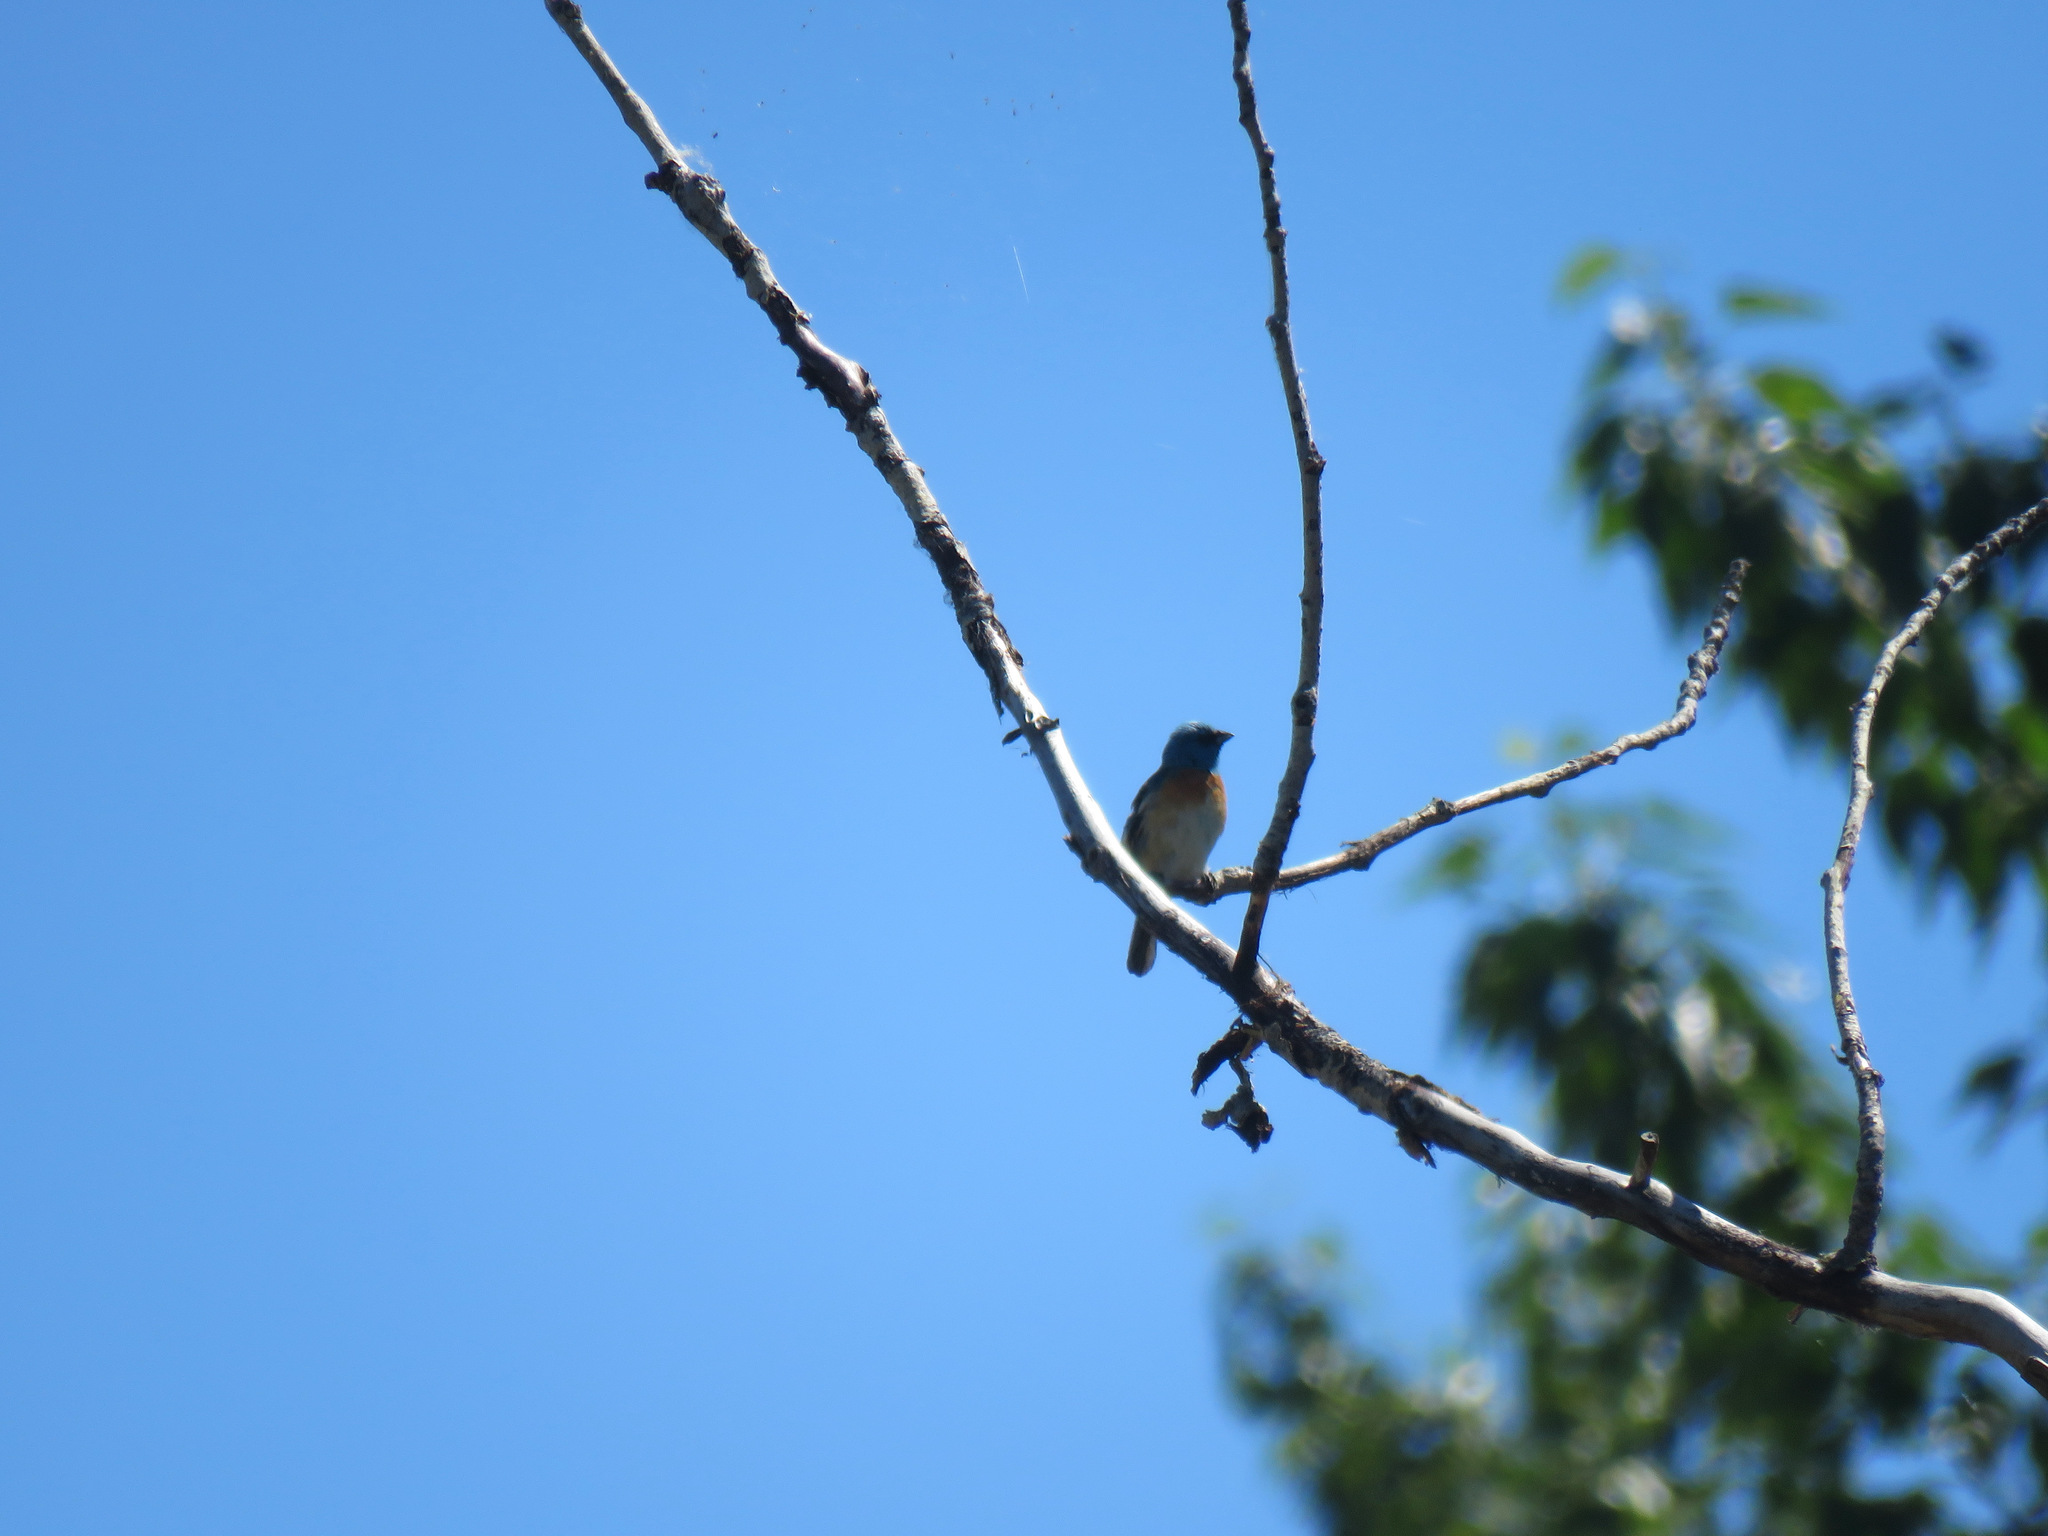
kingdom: Animalia
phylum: Chordata
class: Aves
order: Passeriformes
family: Cardinalidae
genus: Passerina
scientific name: Passerina amoena
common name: Lazuli bunting
